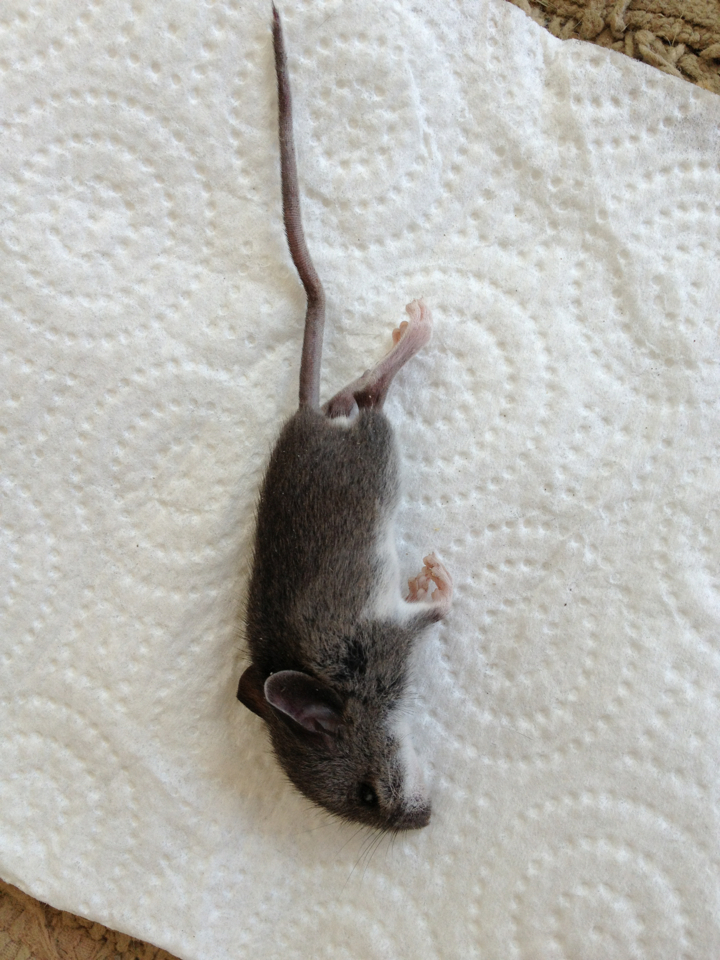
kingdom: Animalia
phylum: Chordata
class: Mammalia
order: Rodentia
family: Cricetidae
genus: Peromyscus
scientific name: Peromyscus leucopus
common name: White-footed deermouse
